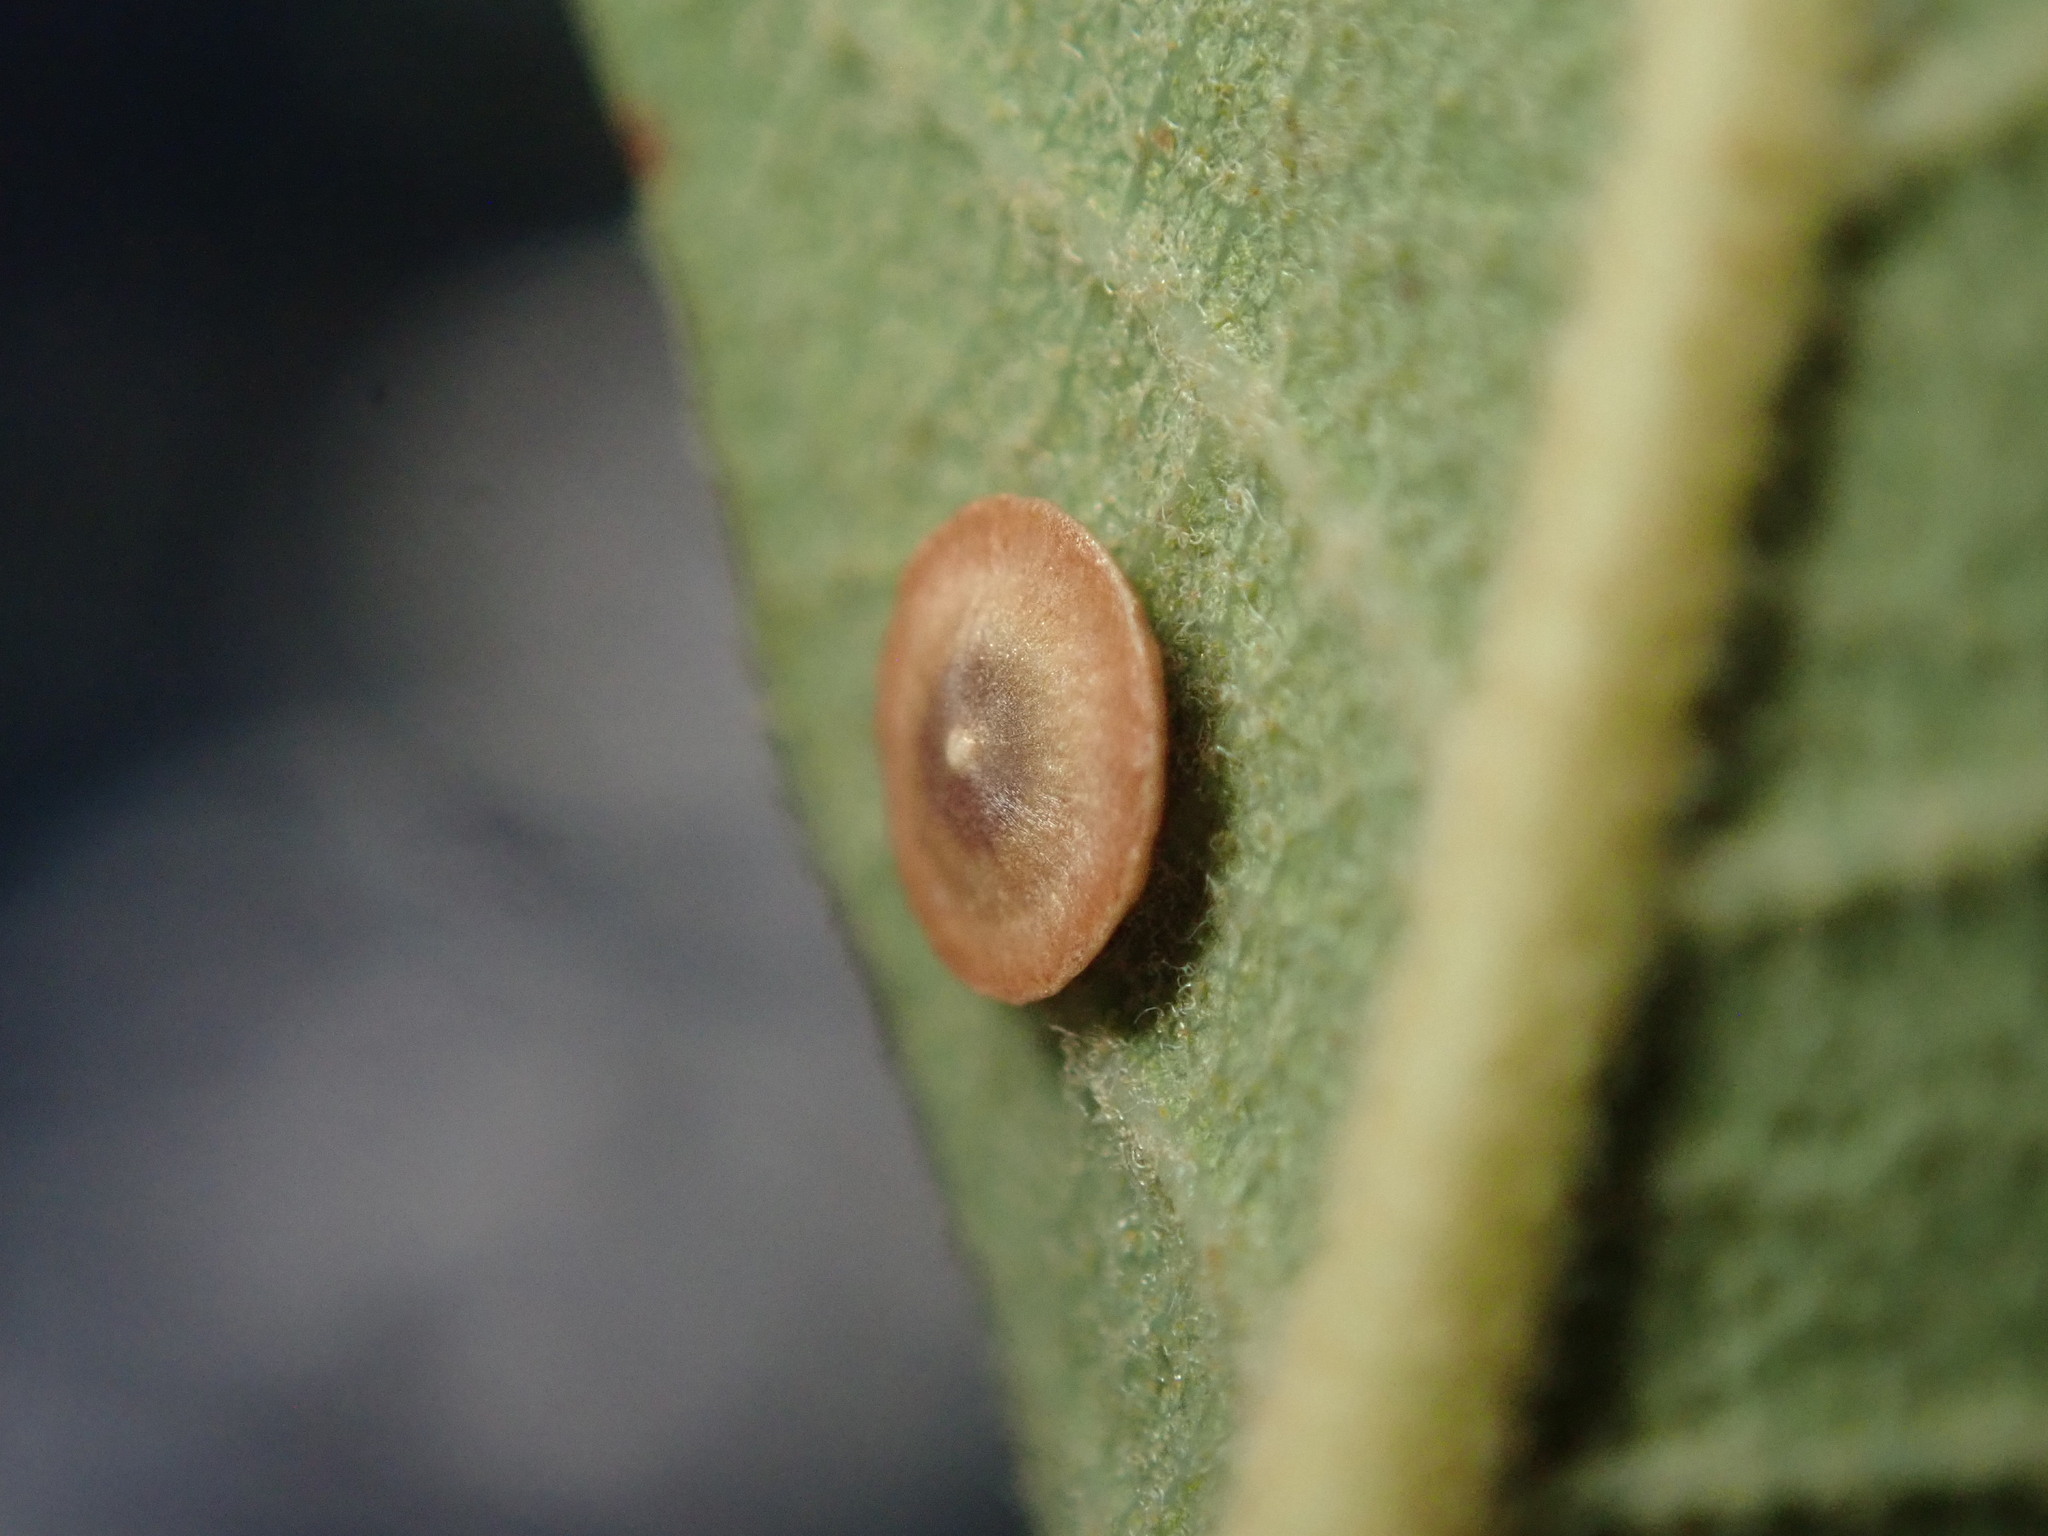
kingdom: Animalia
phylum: Arthropoda
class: Insecta
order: Hymenoptera
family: Cynipidae
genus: Andricus
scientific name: Andricus
